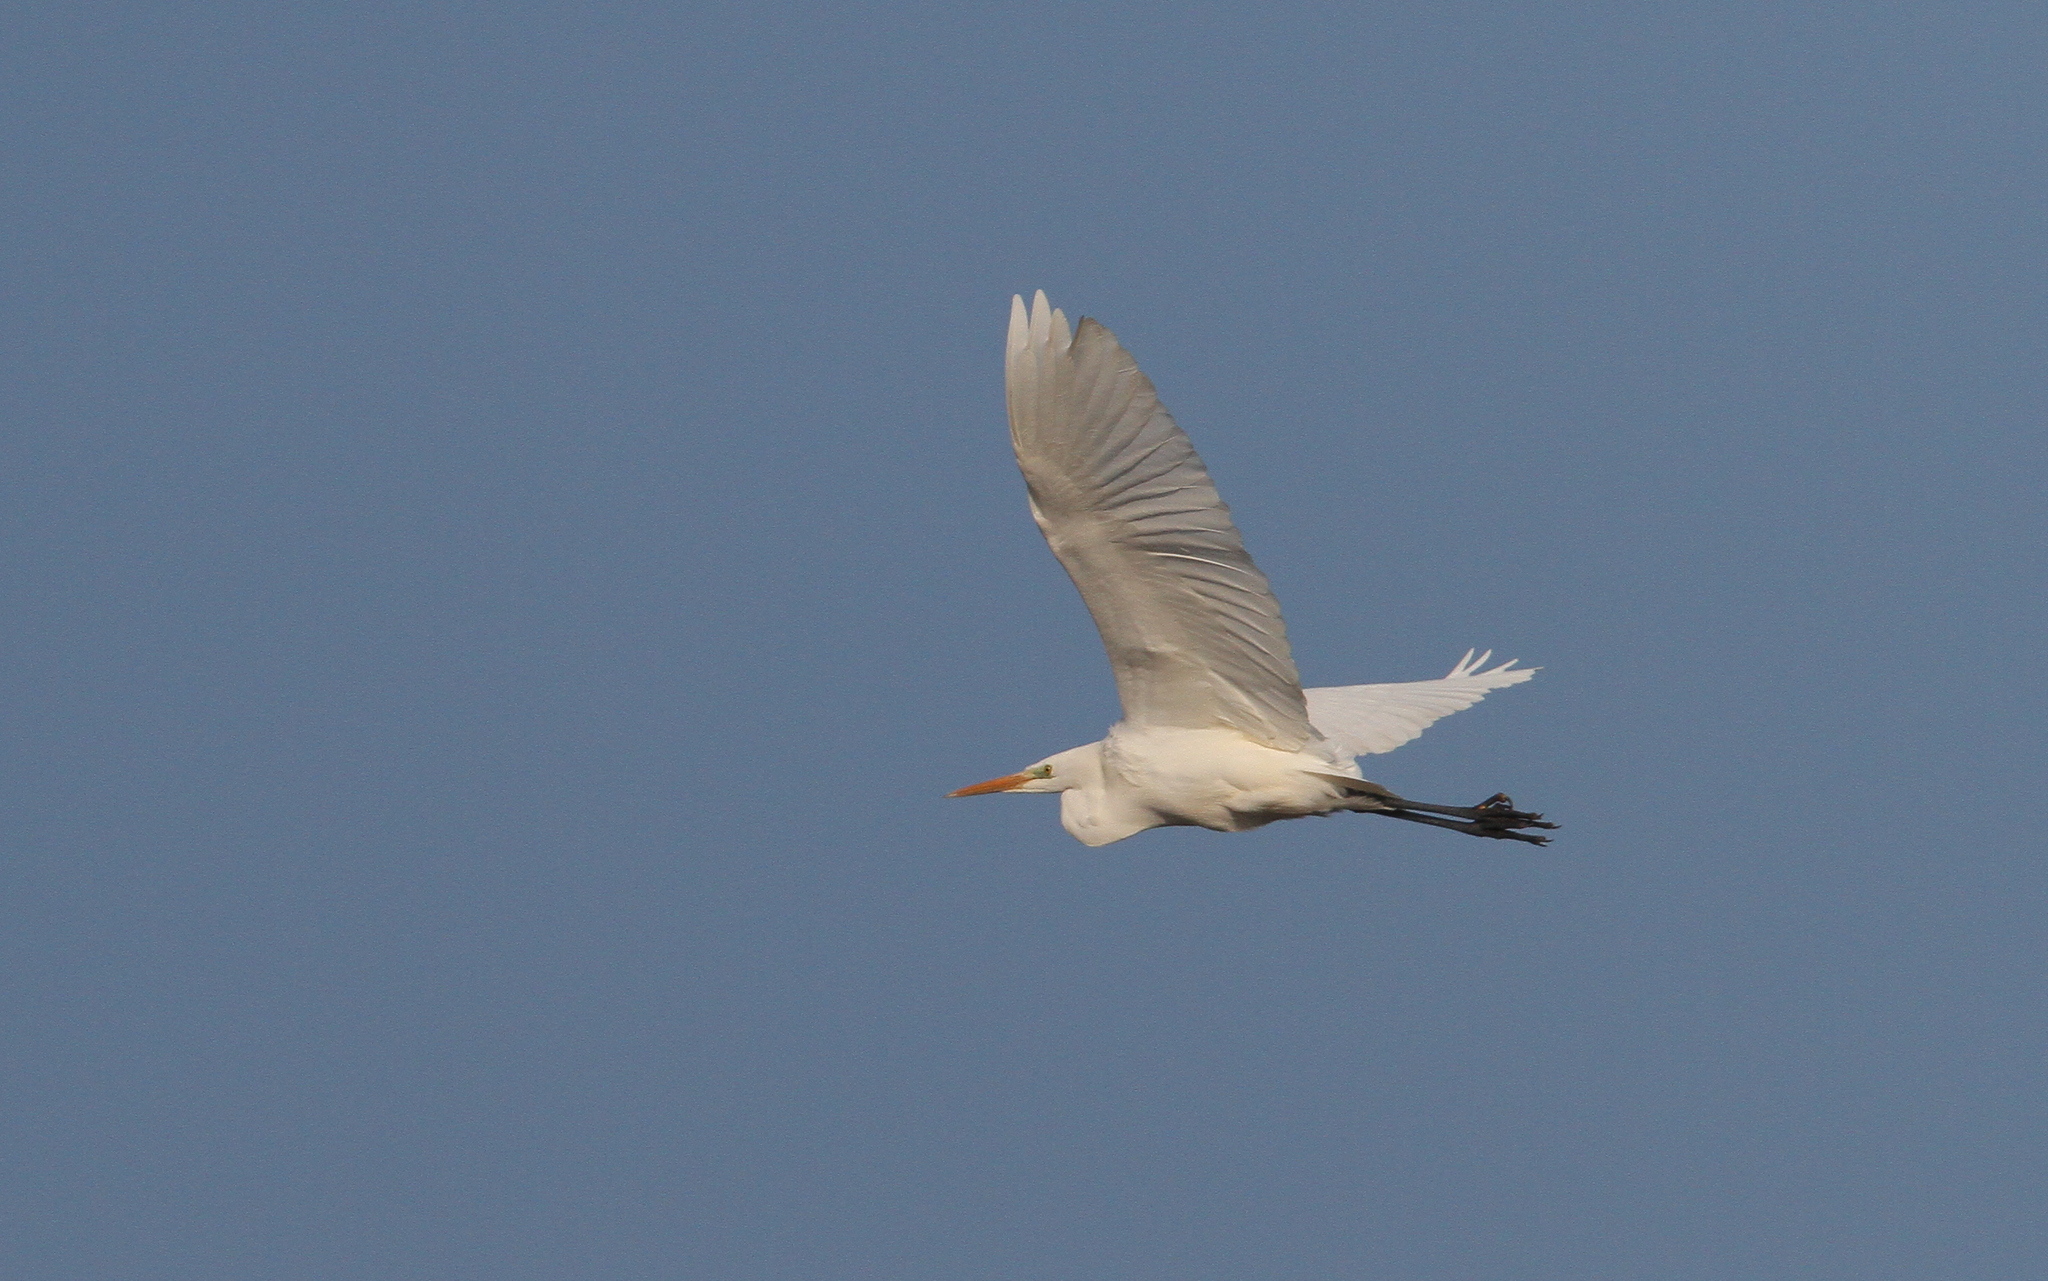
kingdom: Animalia
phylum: Chordata
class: Aves
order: Pelecaniformes
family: Ardeidae
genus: Ardea
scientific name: Ardea alba
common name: Great egret
